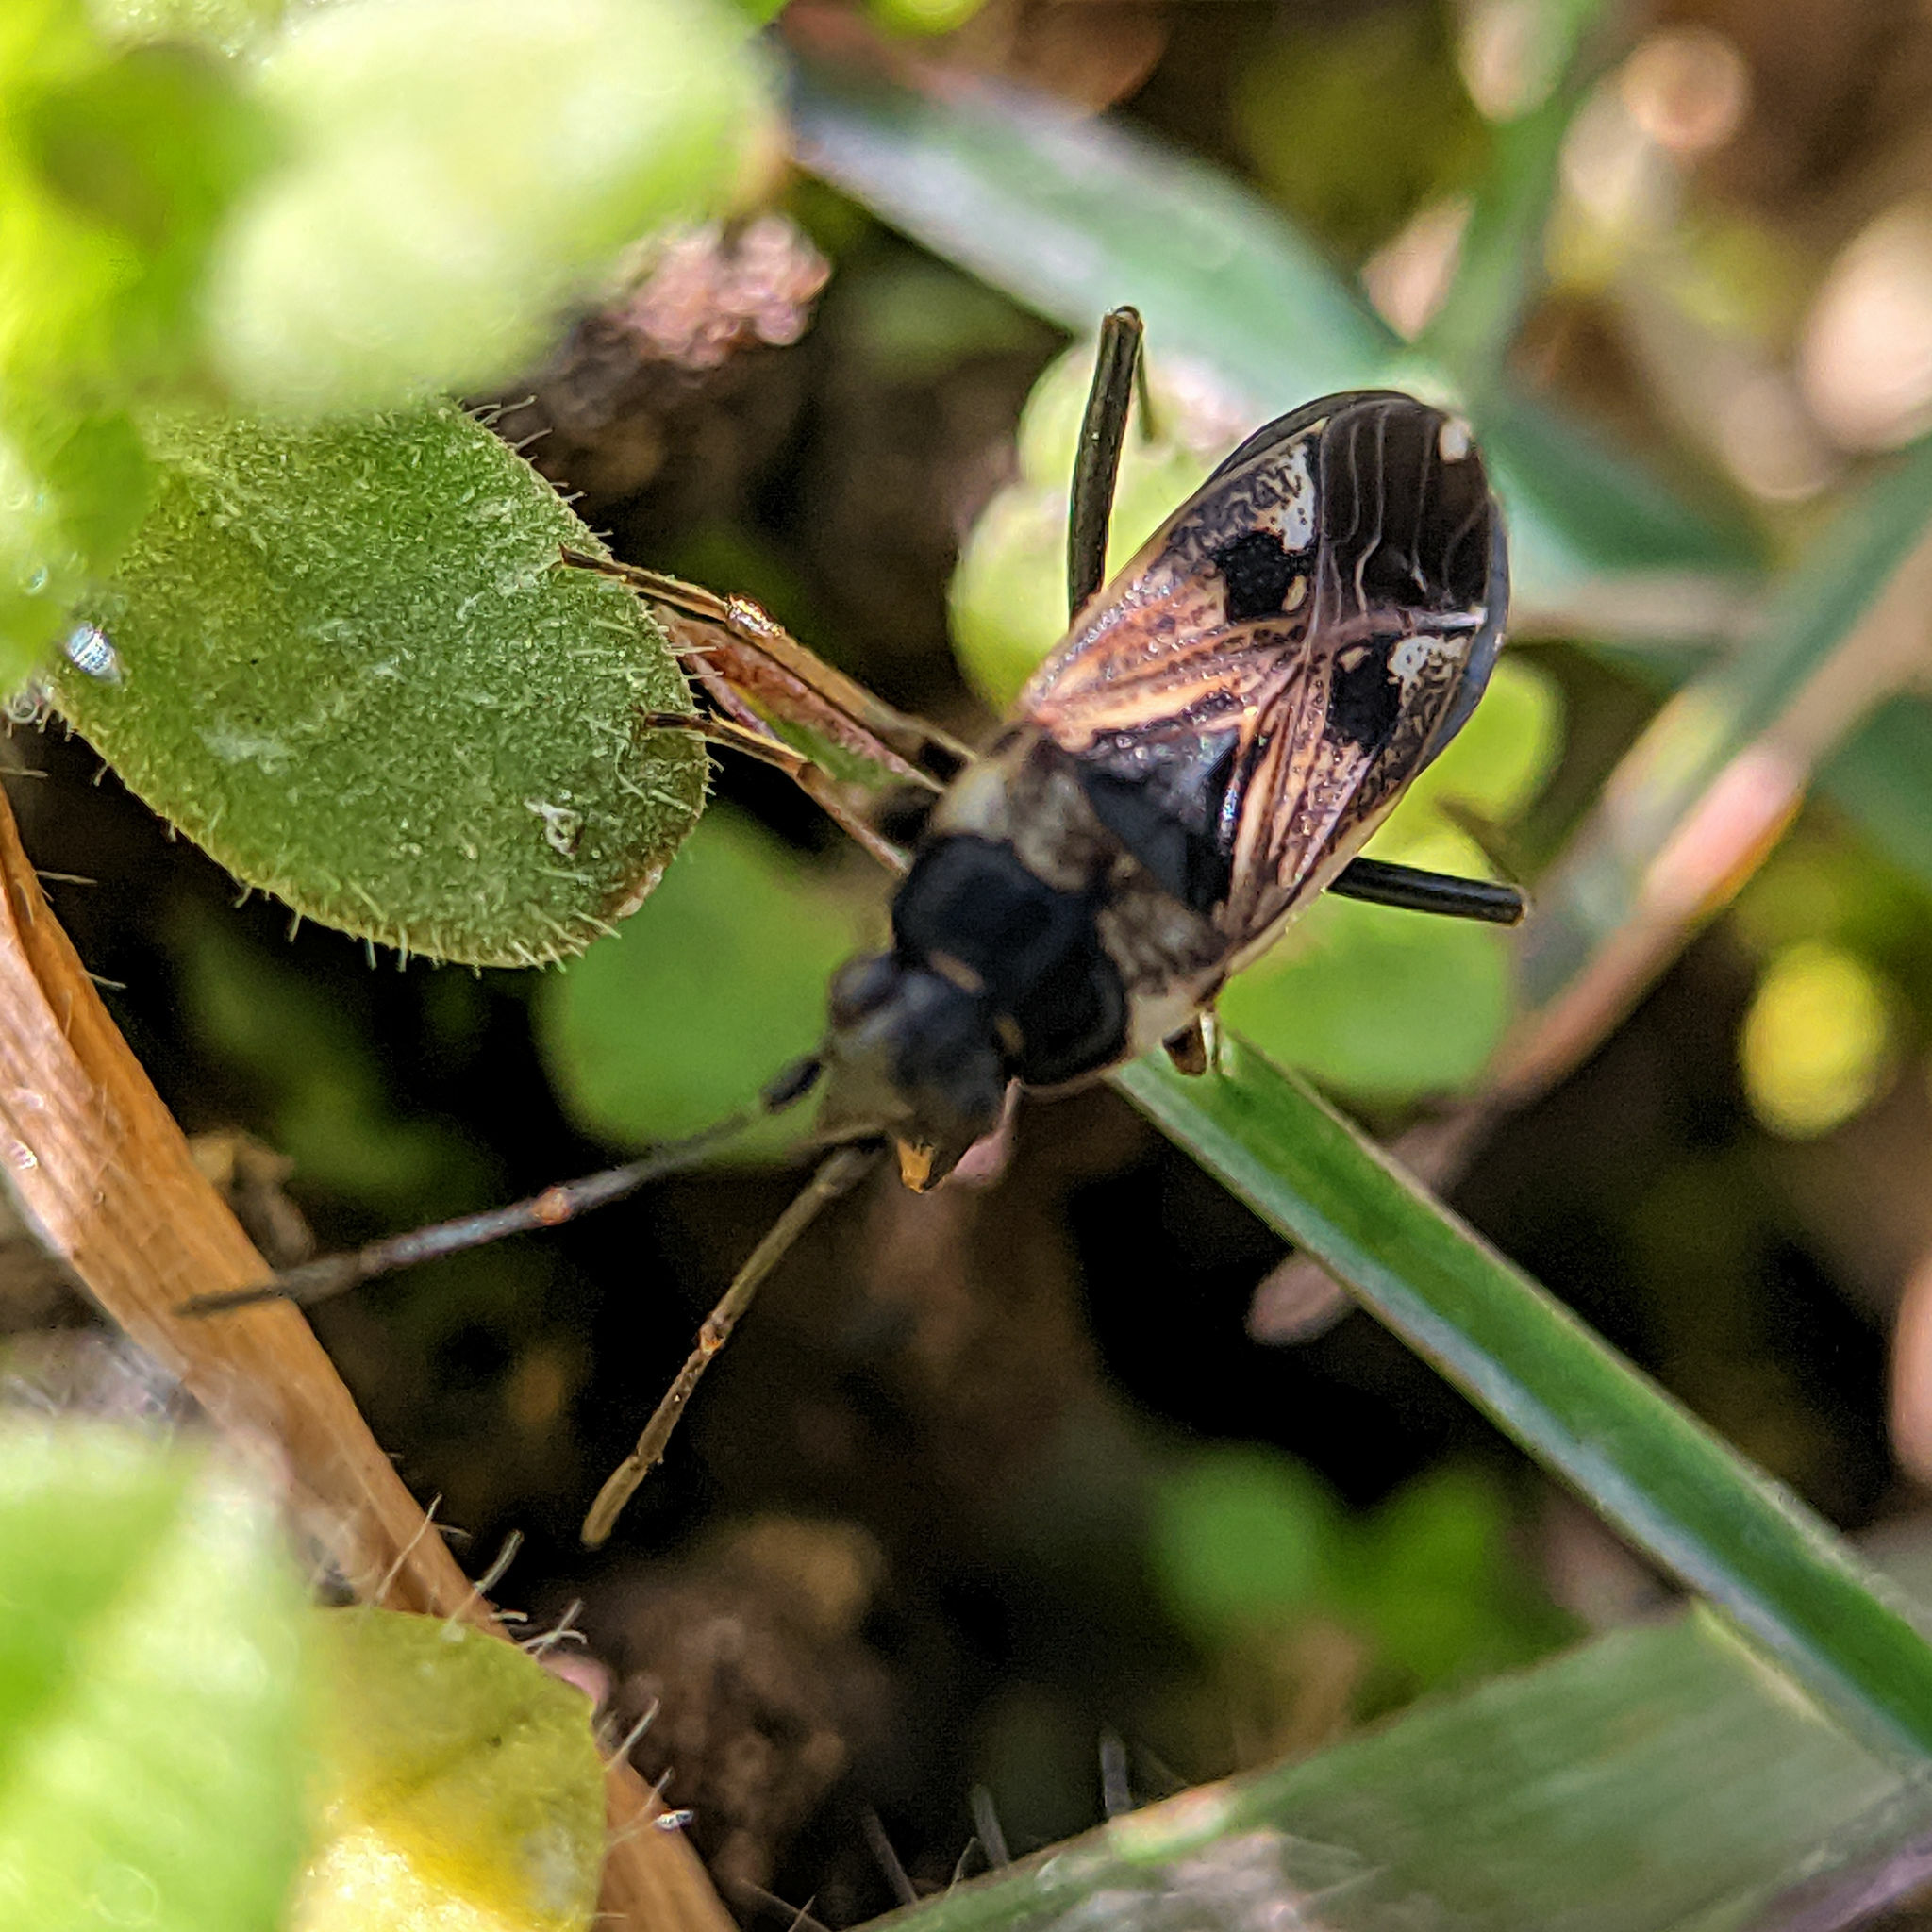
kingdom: Animalia
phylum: Arthropoda
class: Insecta
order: Hemiptera
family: Rhyparochromidae
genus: Rhyparochromus
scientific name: Rhyparochromus vulgaris
